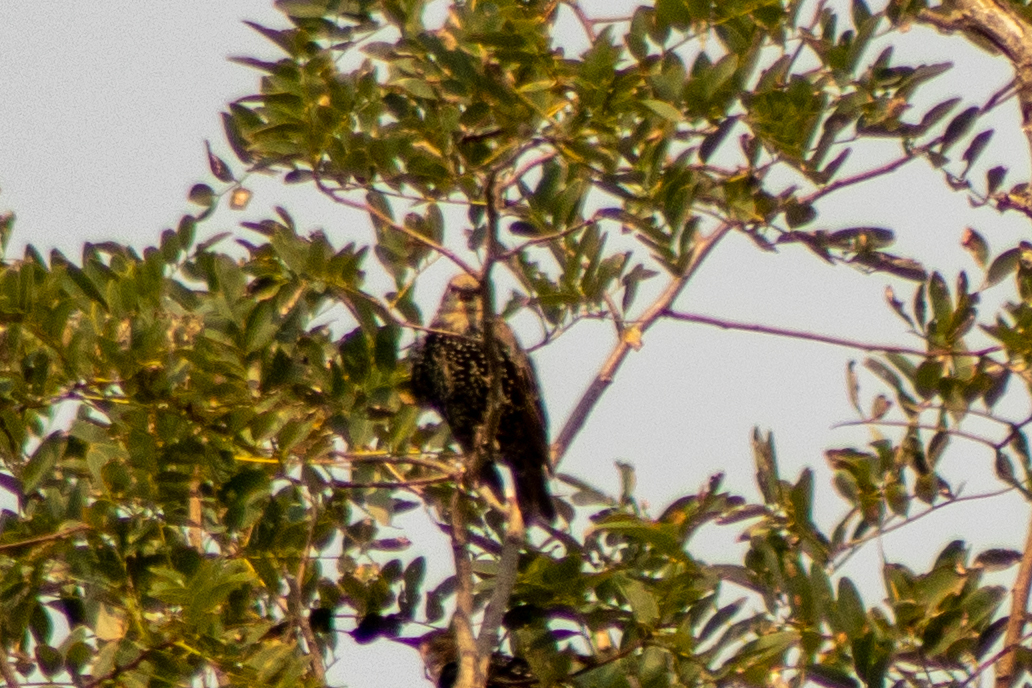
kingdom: Animalia
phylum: Chordata
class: Aves
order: Passeriformes
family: Sturnidae
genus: Sturnus
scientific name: Sturnus vulgaris
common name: Common starling
